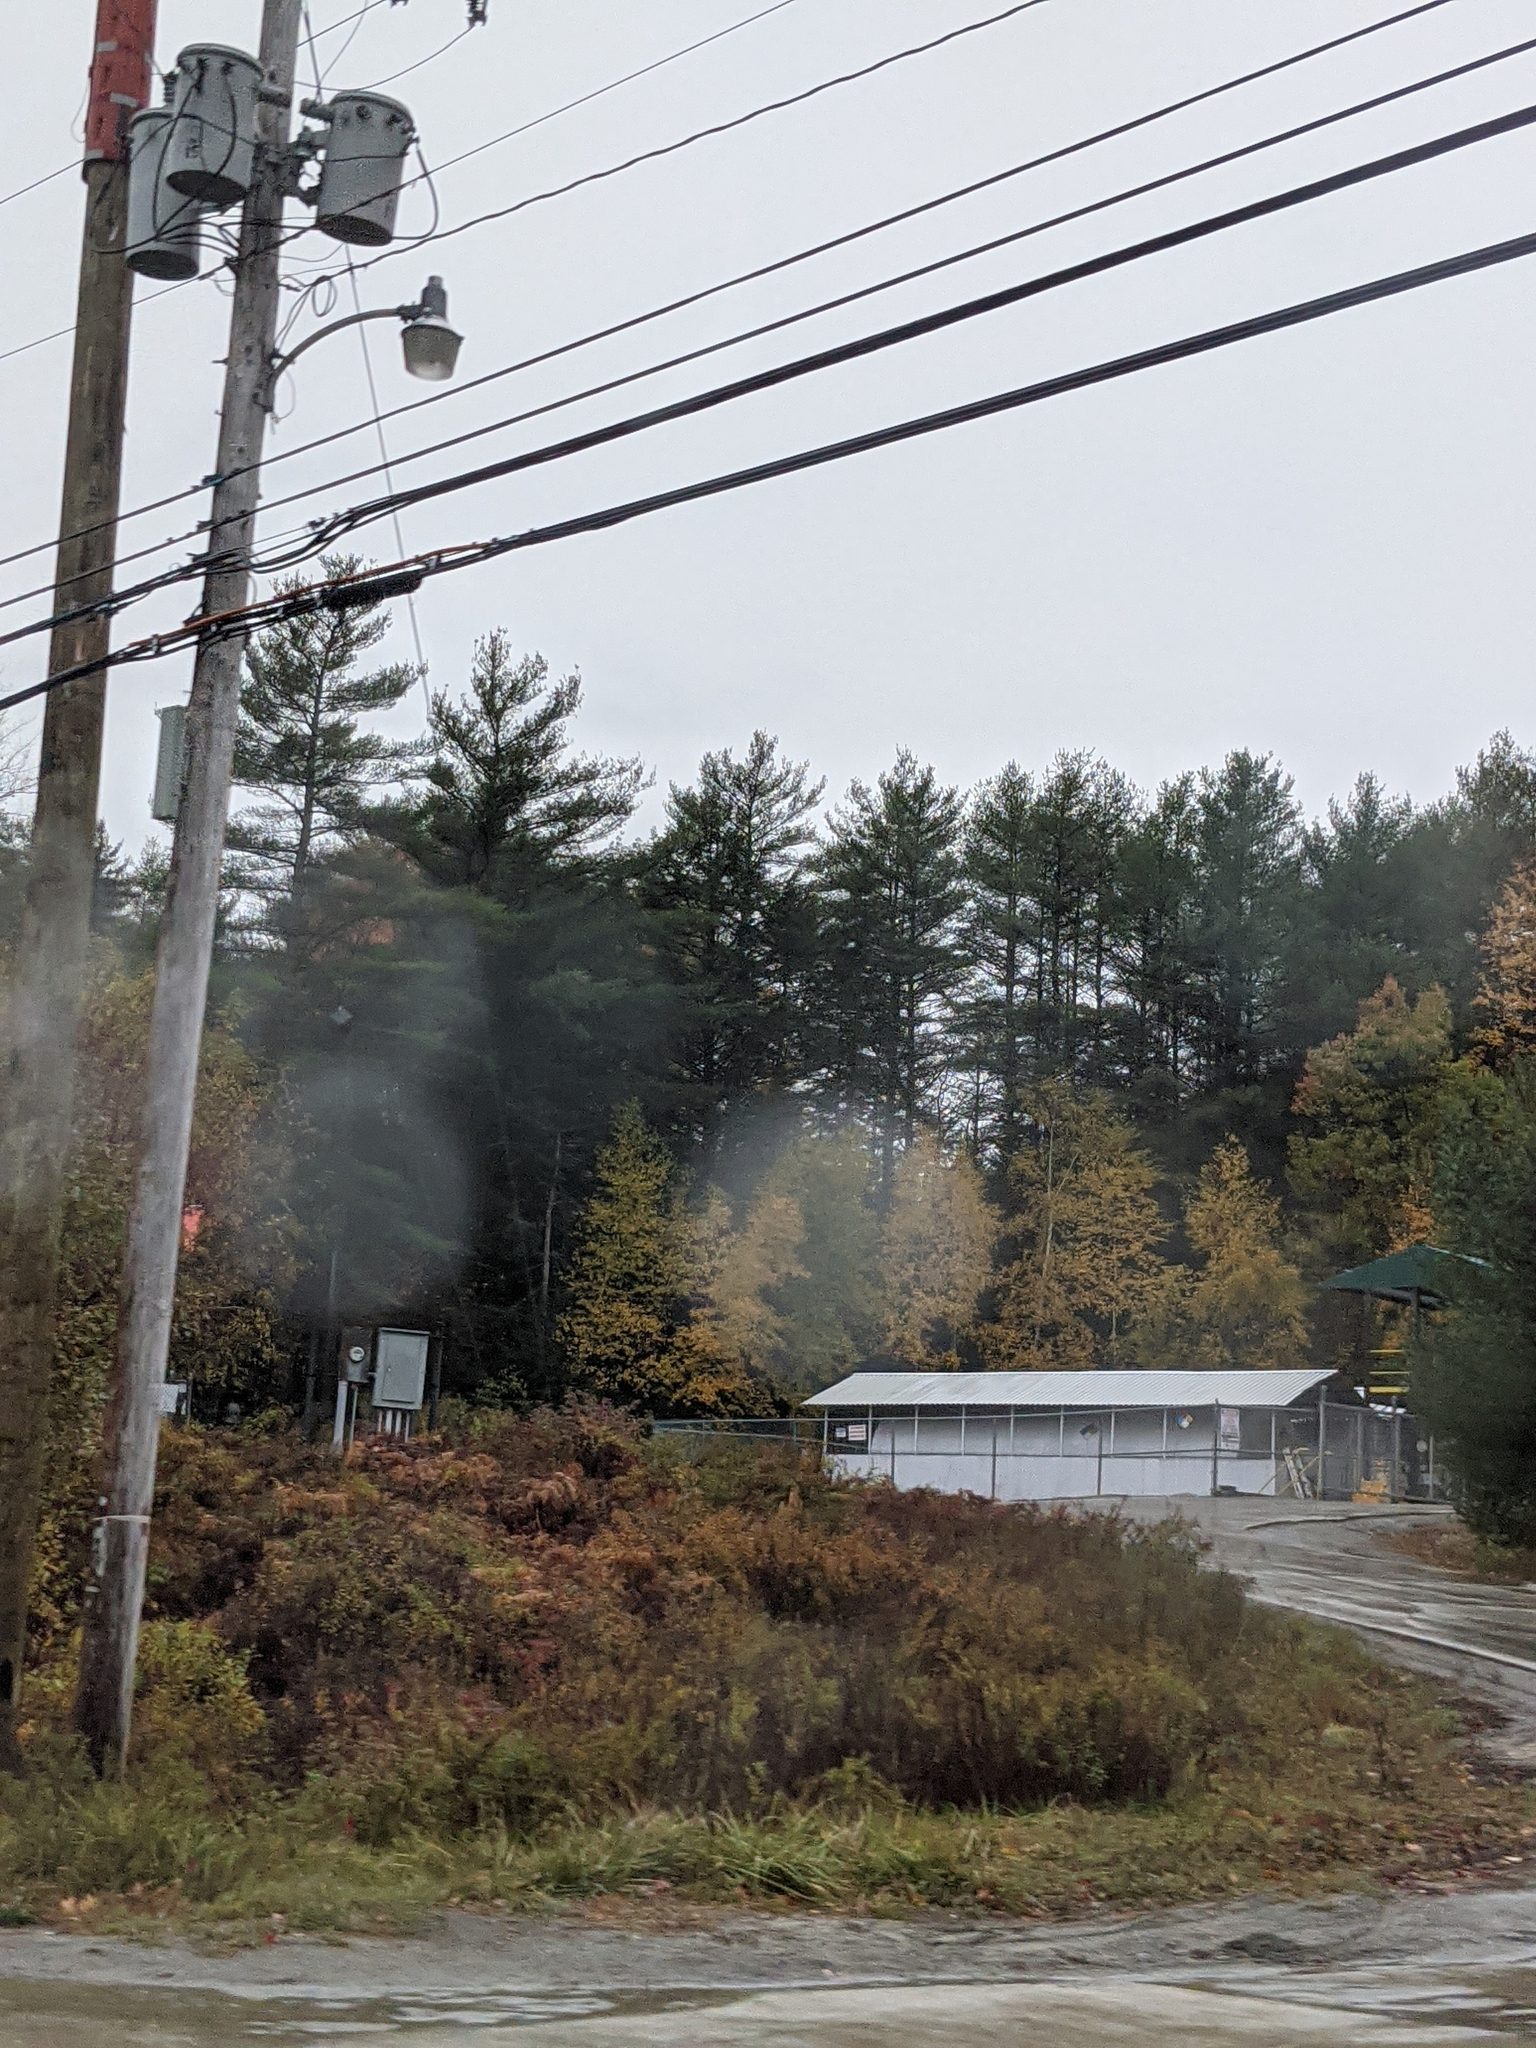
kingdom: Plantae
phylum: Tracheophyta
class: Pinopsida
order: Pinales
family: Pinaceae
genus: Pinus
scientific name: Pinus strobus
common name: Weymouth pine
